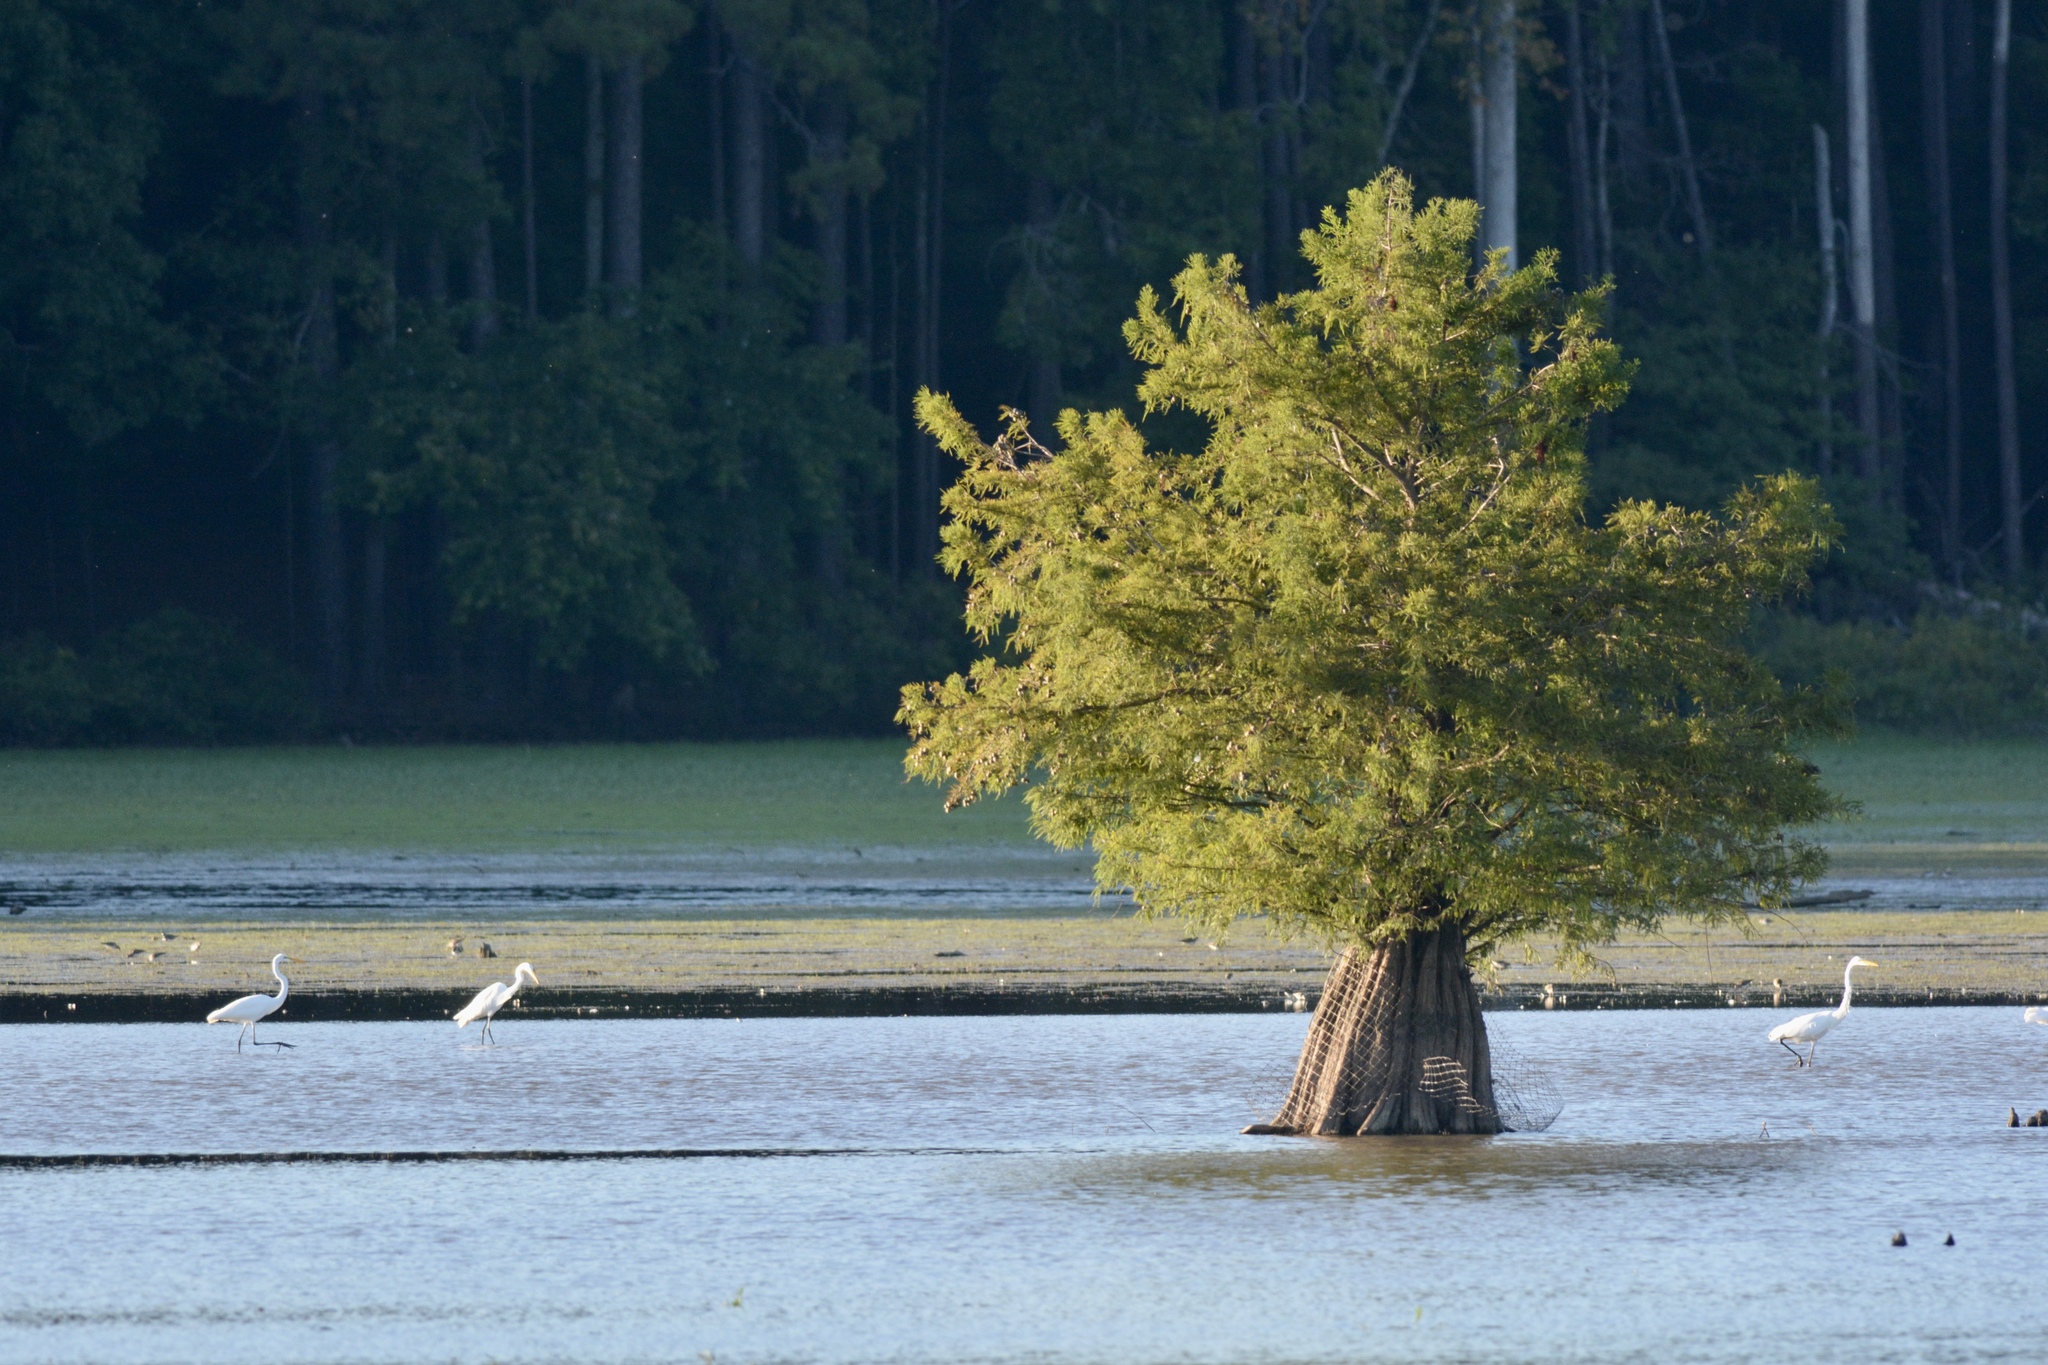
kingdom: Plantae
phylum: Tracheophyta
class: Pinopsida
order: Pinales
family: Cupressaceae
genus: Taxodium
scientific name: Taxodium distichum
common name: Bald cypress
